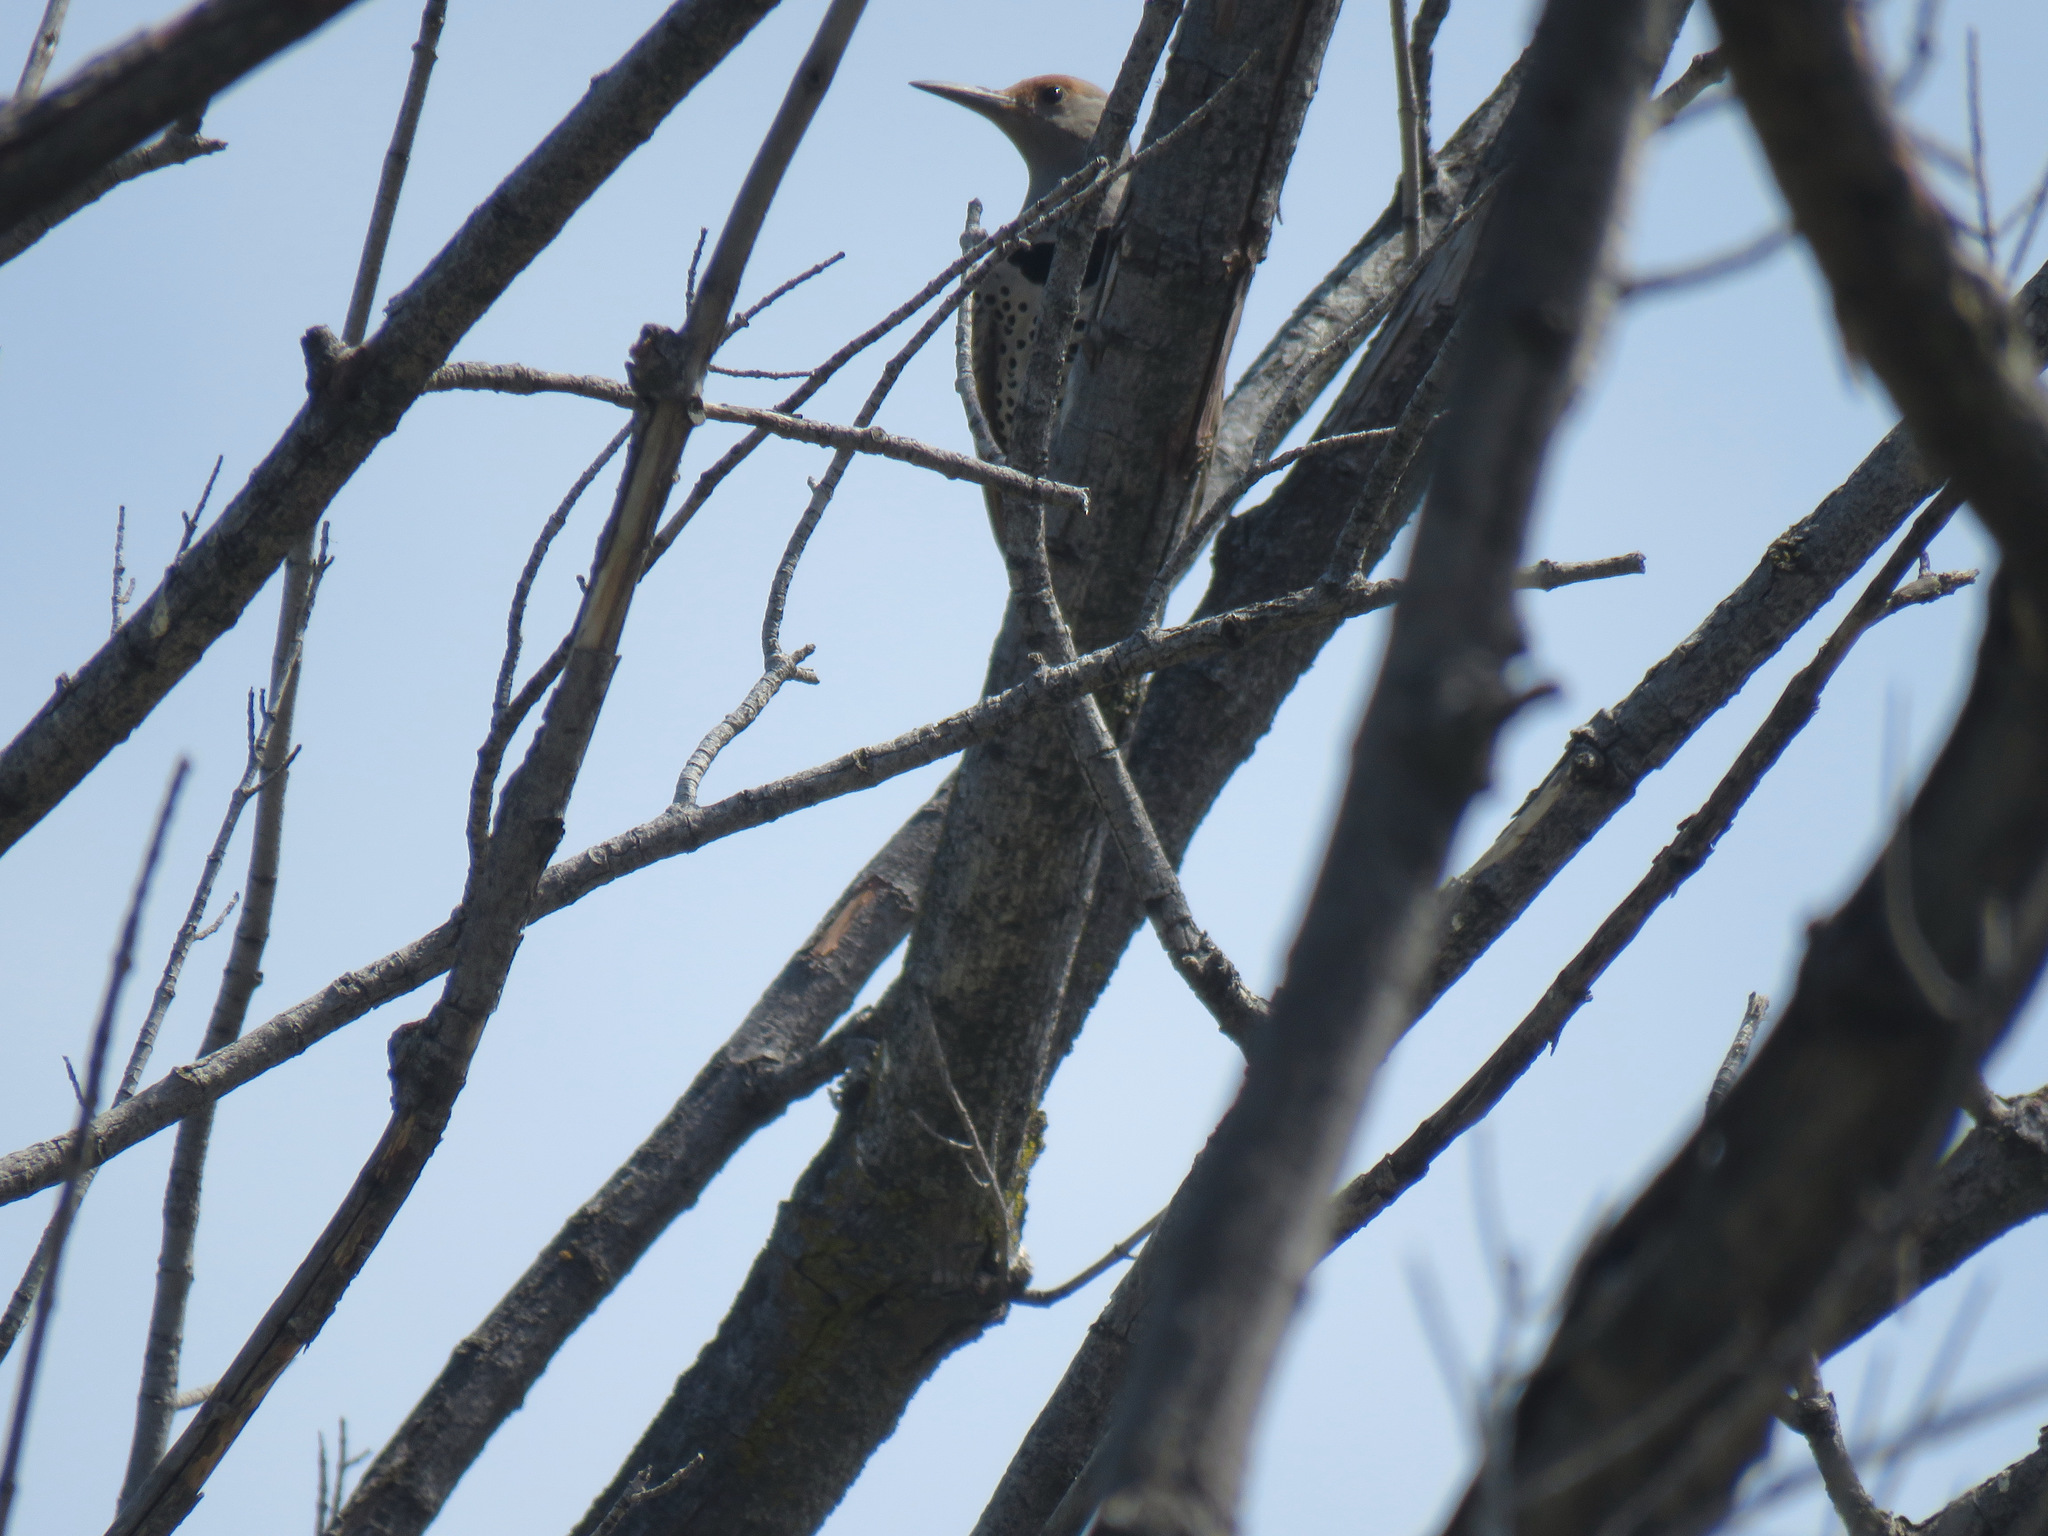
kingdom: Animalia
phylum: Chordata
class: Aves
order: Piciformes
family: Picidae
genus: Colaptes
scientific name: Colaptes auratus
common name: Northern flicker
